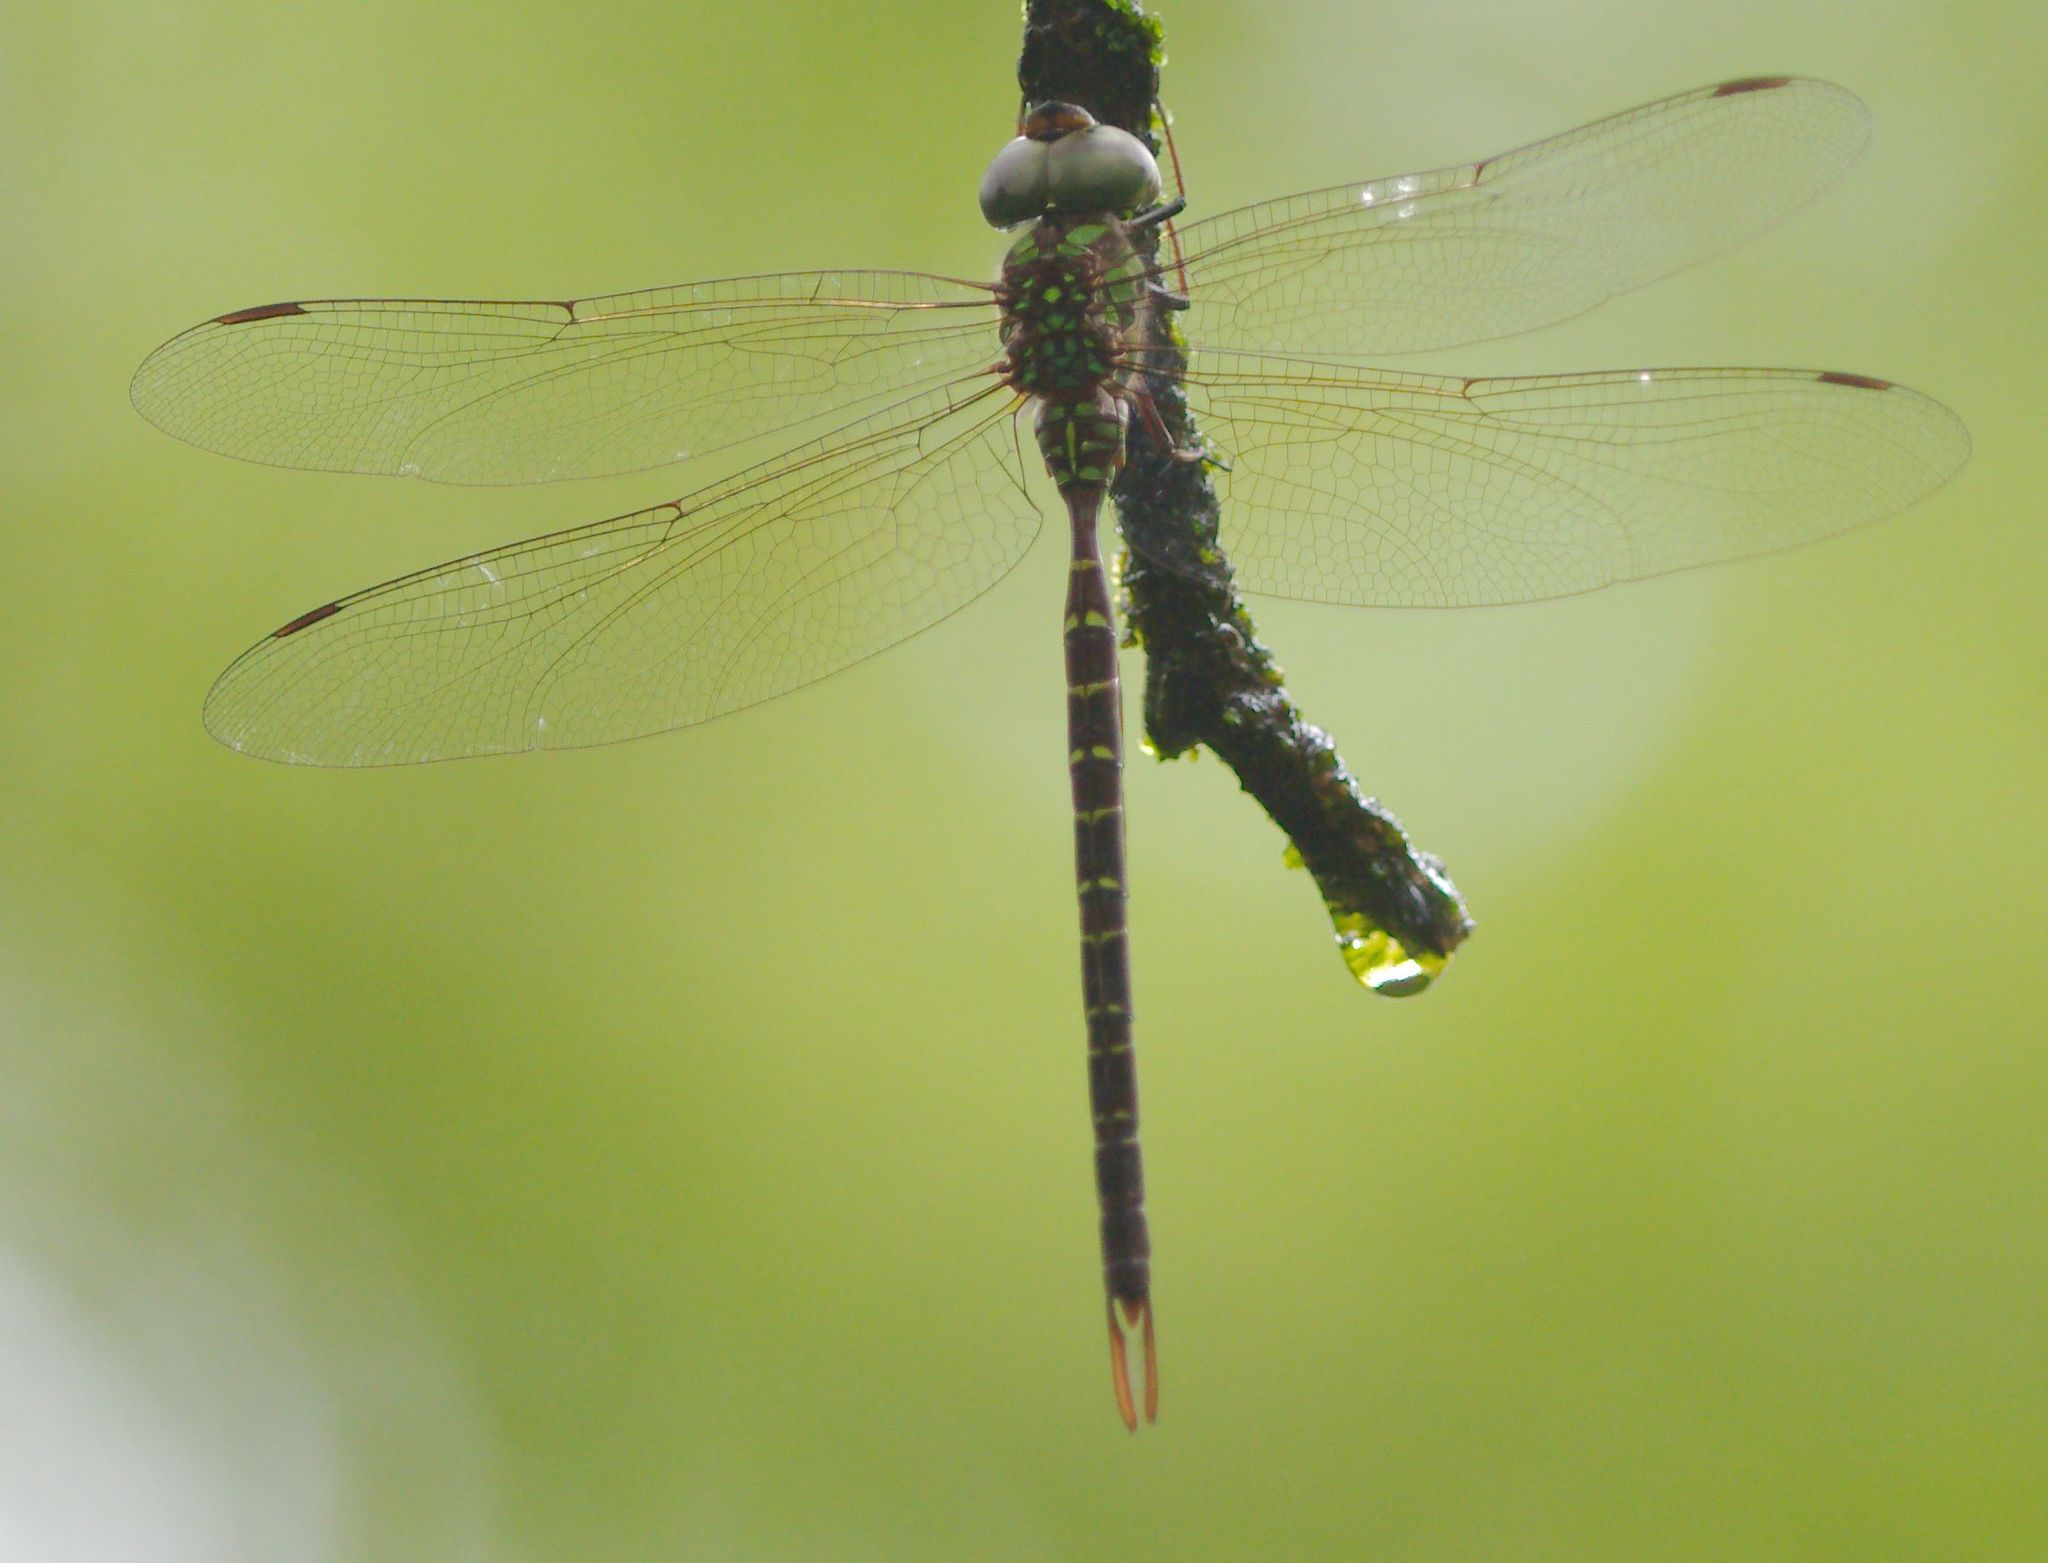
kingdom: Animalia
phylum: Arthropoda
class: Insecta
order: Odonata
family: Aeshnidae
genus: Triacanthagyna
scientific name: Triacanthagyna trifida
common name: Phantom darner
